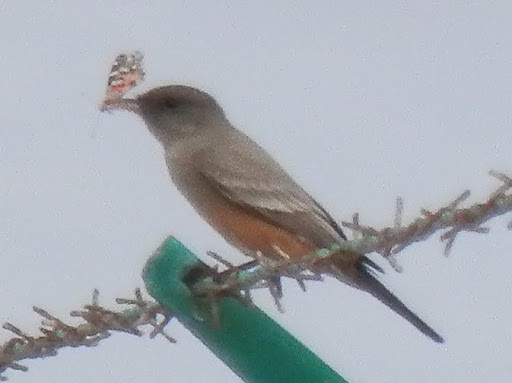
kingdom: Animalia
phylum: Chordata
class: Aves
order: Passeriformes
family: Tyrannidae
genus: Sayornis
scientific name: Sayornis saya
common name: Say's phoebe
